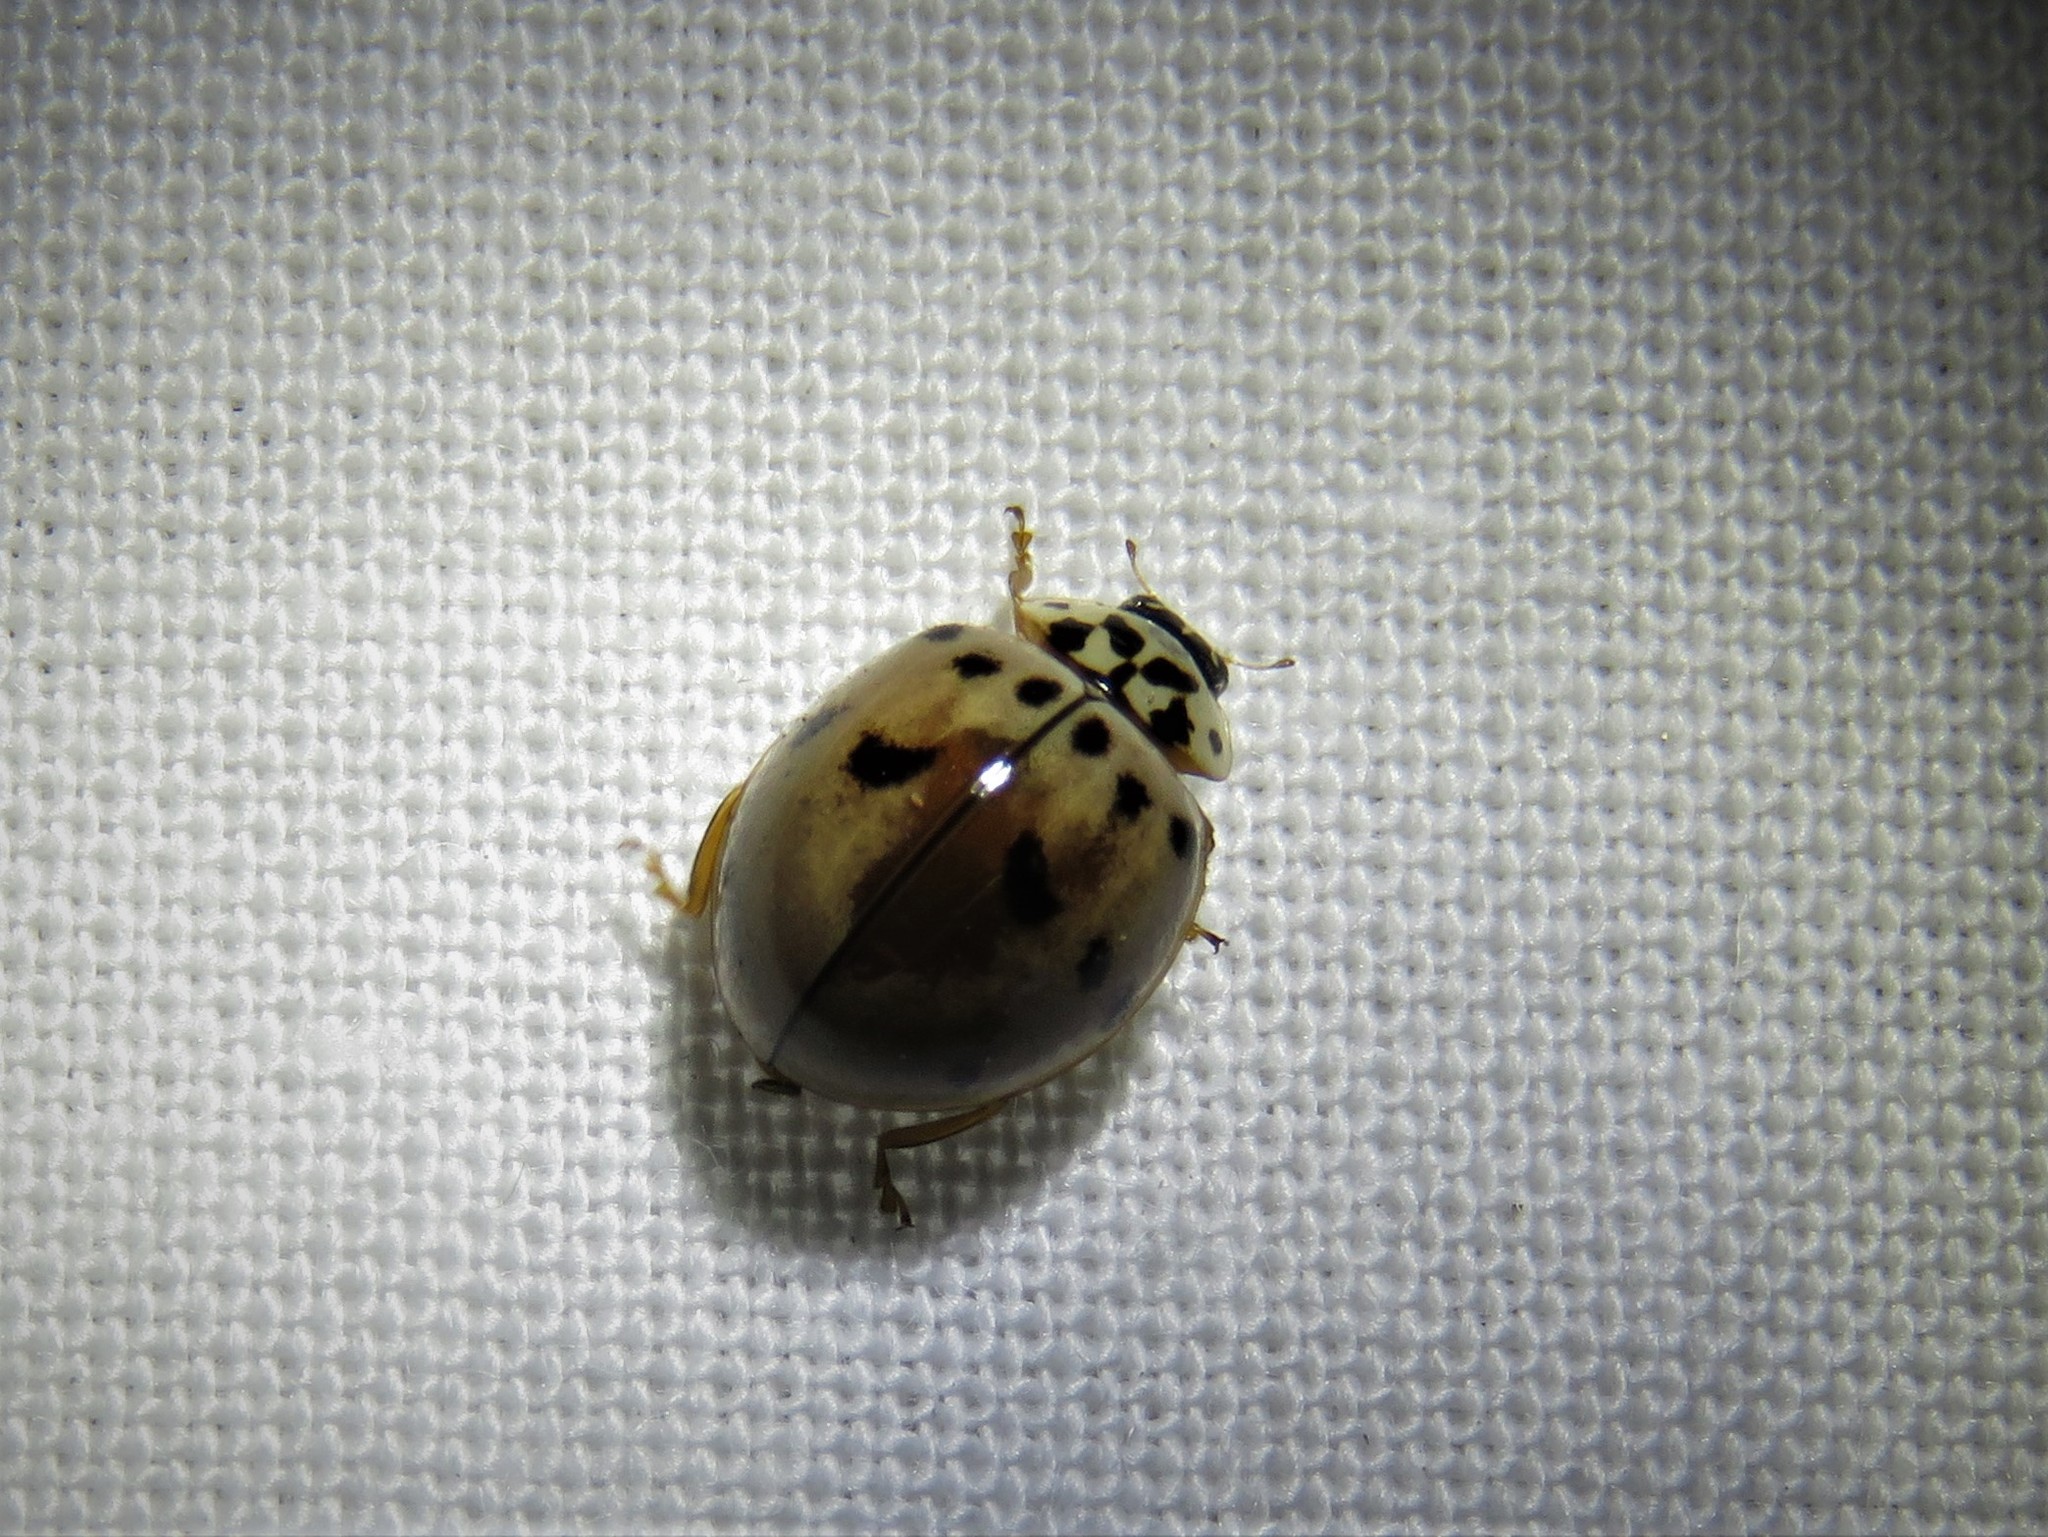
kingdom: Animalia
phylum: Arthropoda
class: Insecta
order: Coleoptera
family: Coccinellidae
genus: Olla
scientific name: Olla v-nigrum
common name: Ashy gray lady beetle
